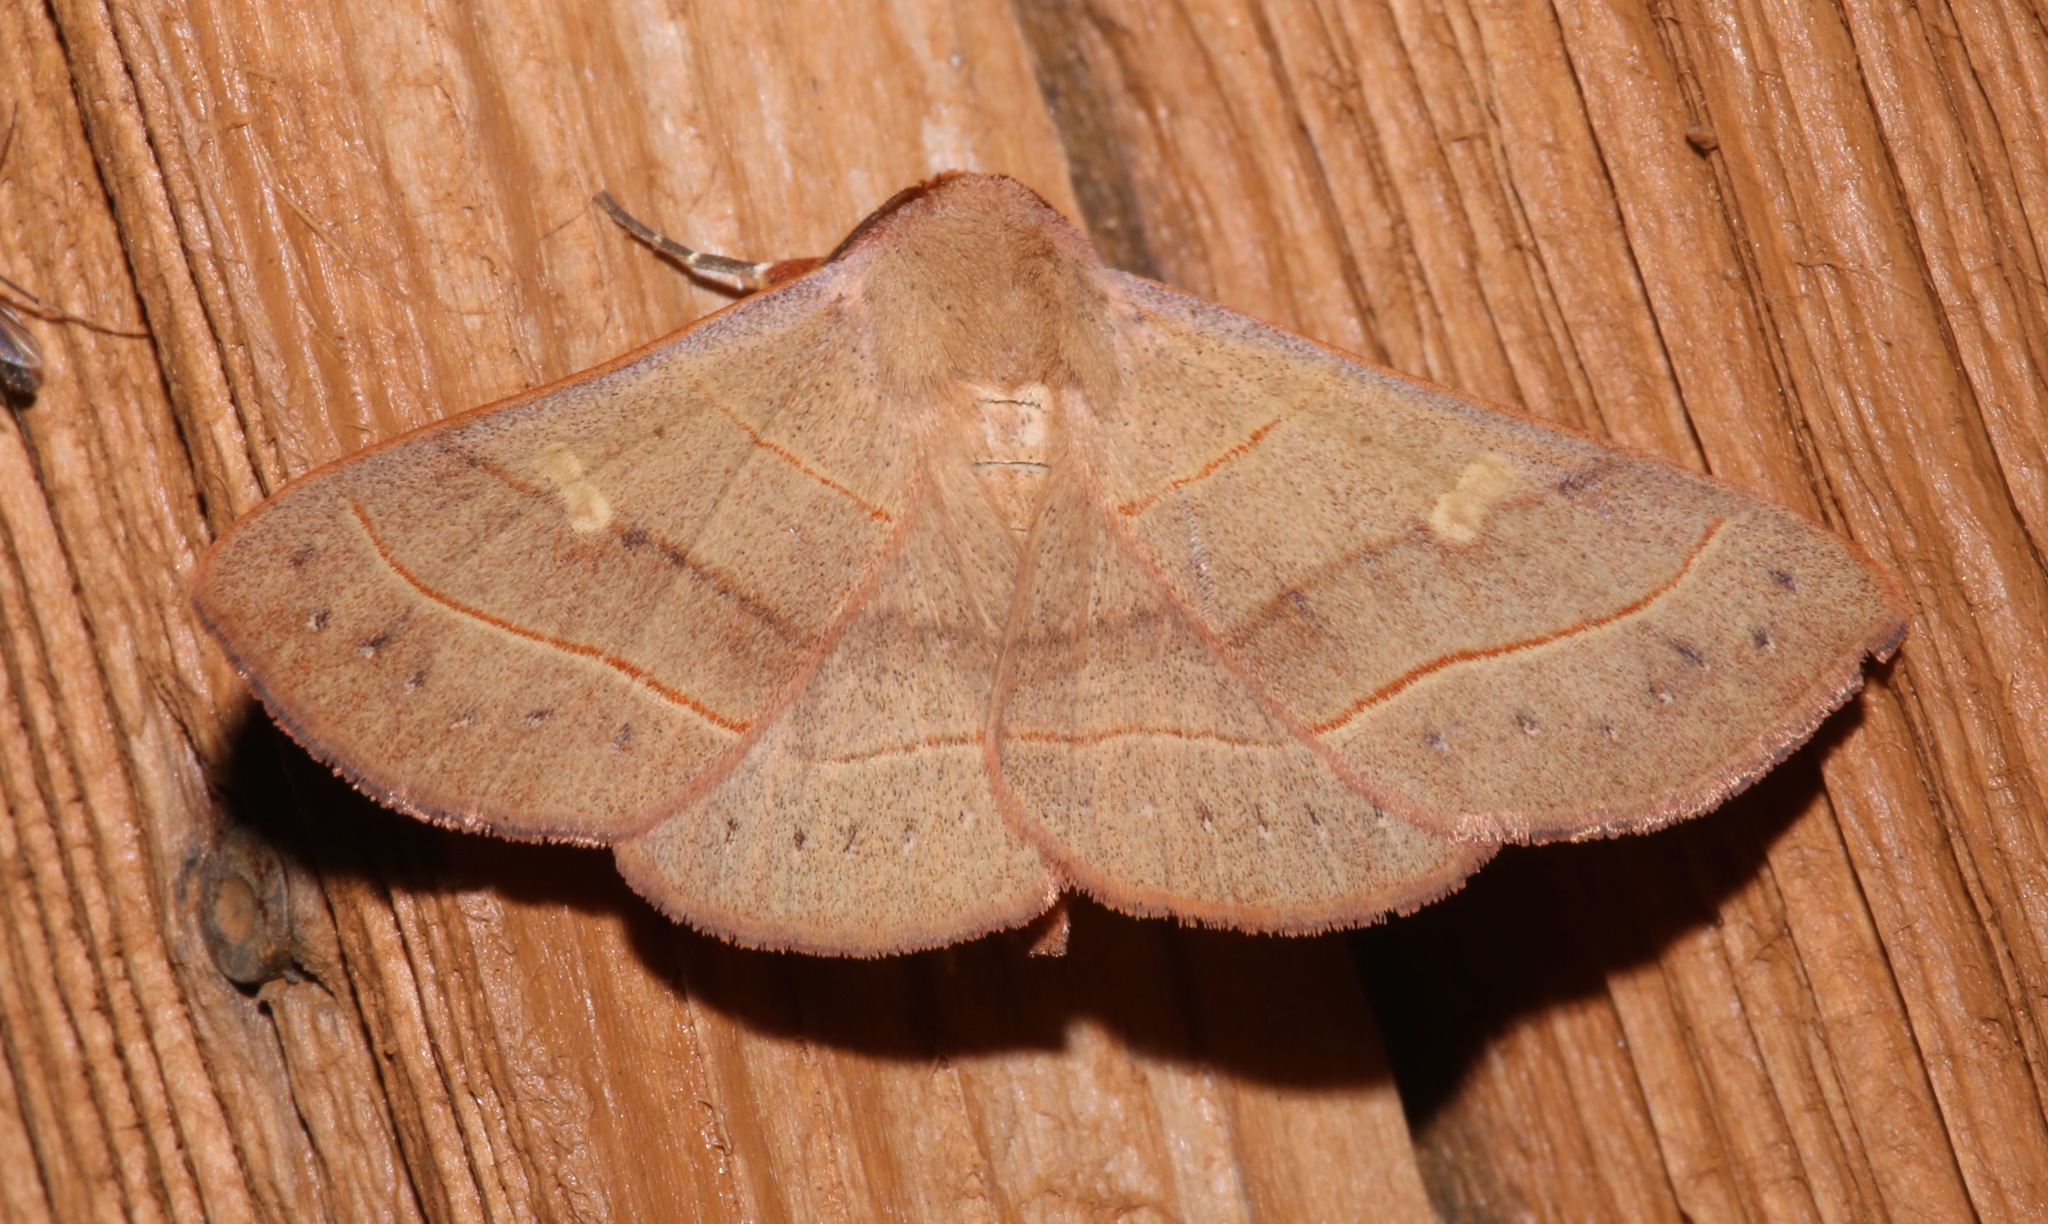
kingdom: Animalia
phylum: Arthropoda
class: Insecta
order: Lepidoptera
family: Erebidae
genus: Panopoda
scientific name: Panopoda rufimargo
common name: Red-lined panopoda moth
